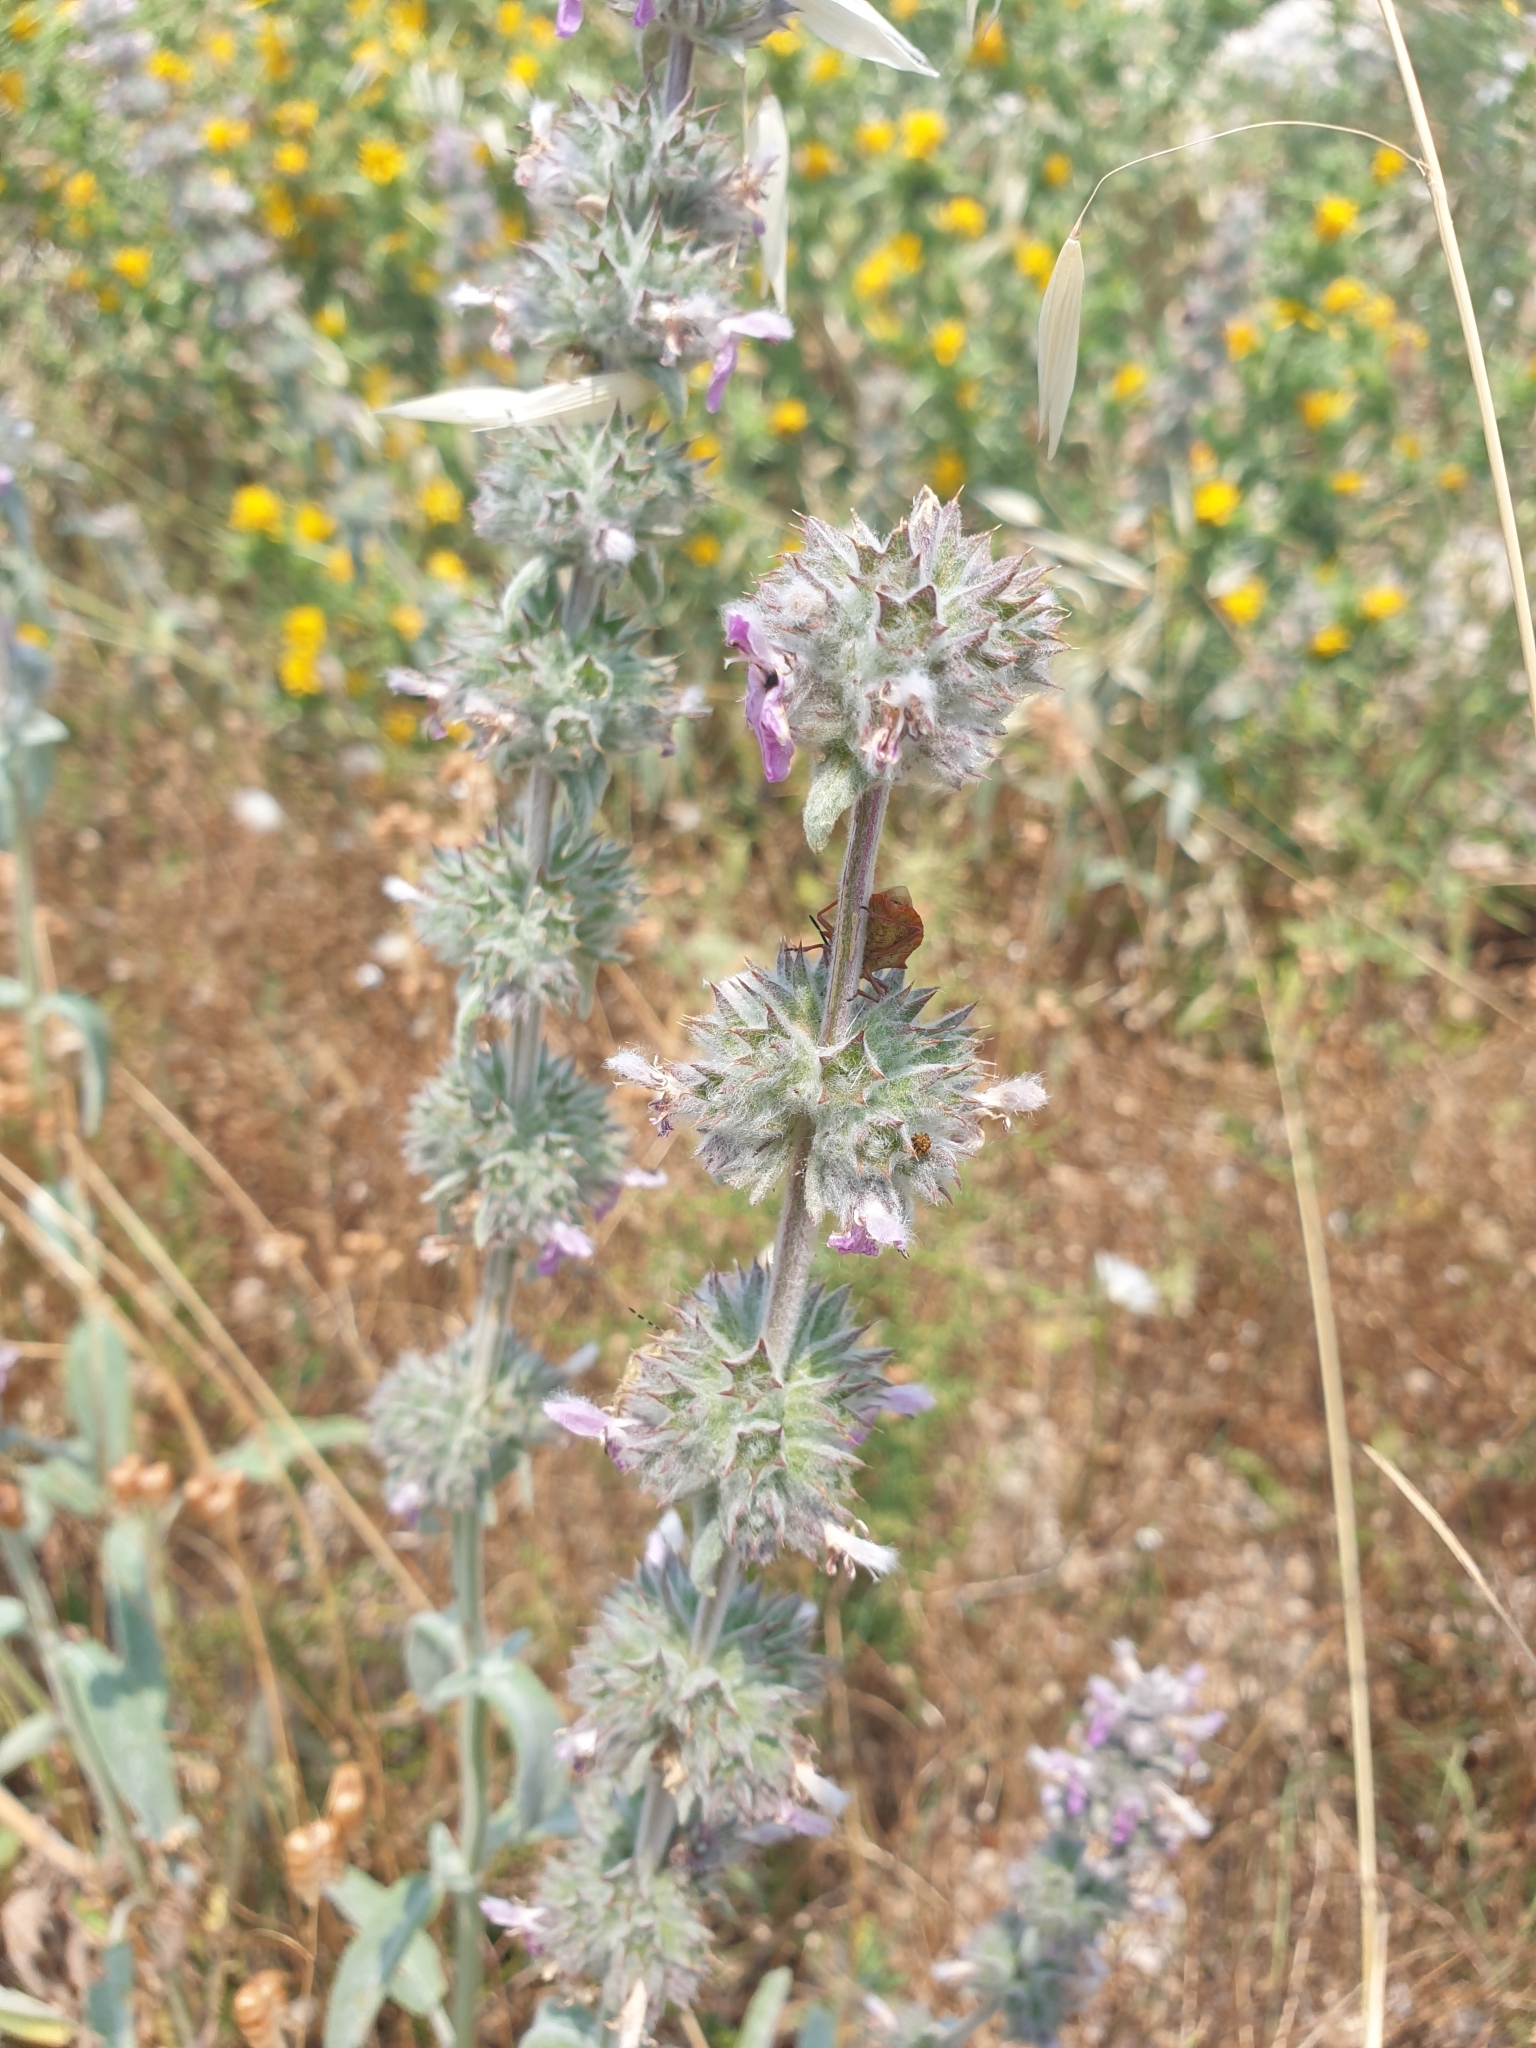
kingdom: Plantae
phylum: Tracheophyta
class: Magnoliopsida
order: Lamiales
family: Lamiaceae
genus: Stachys
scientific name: Stachys cretica
